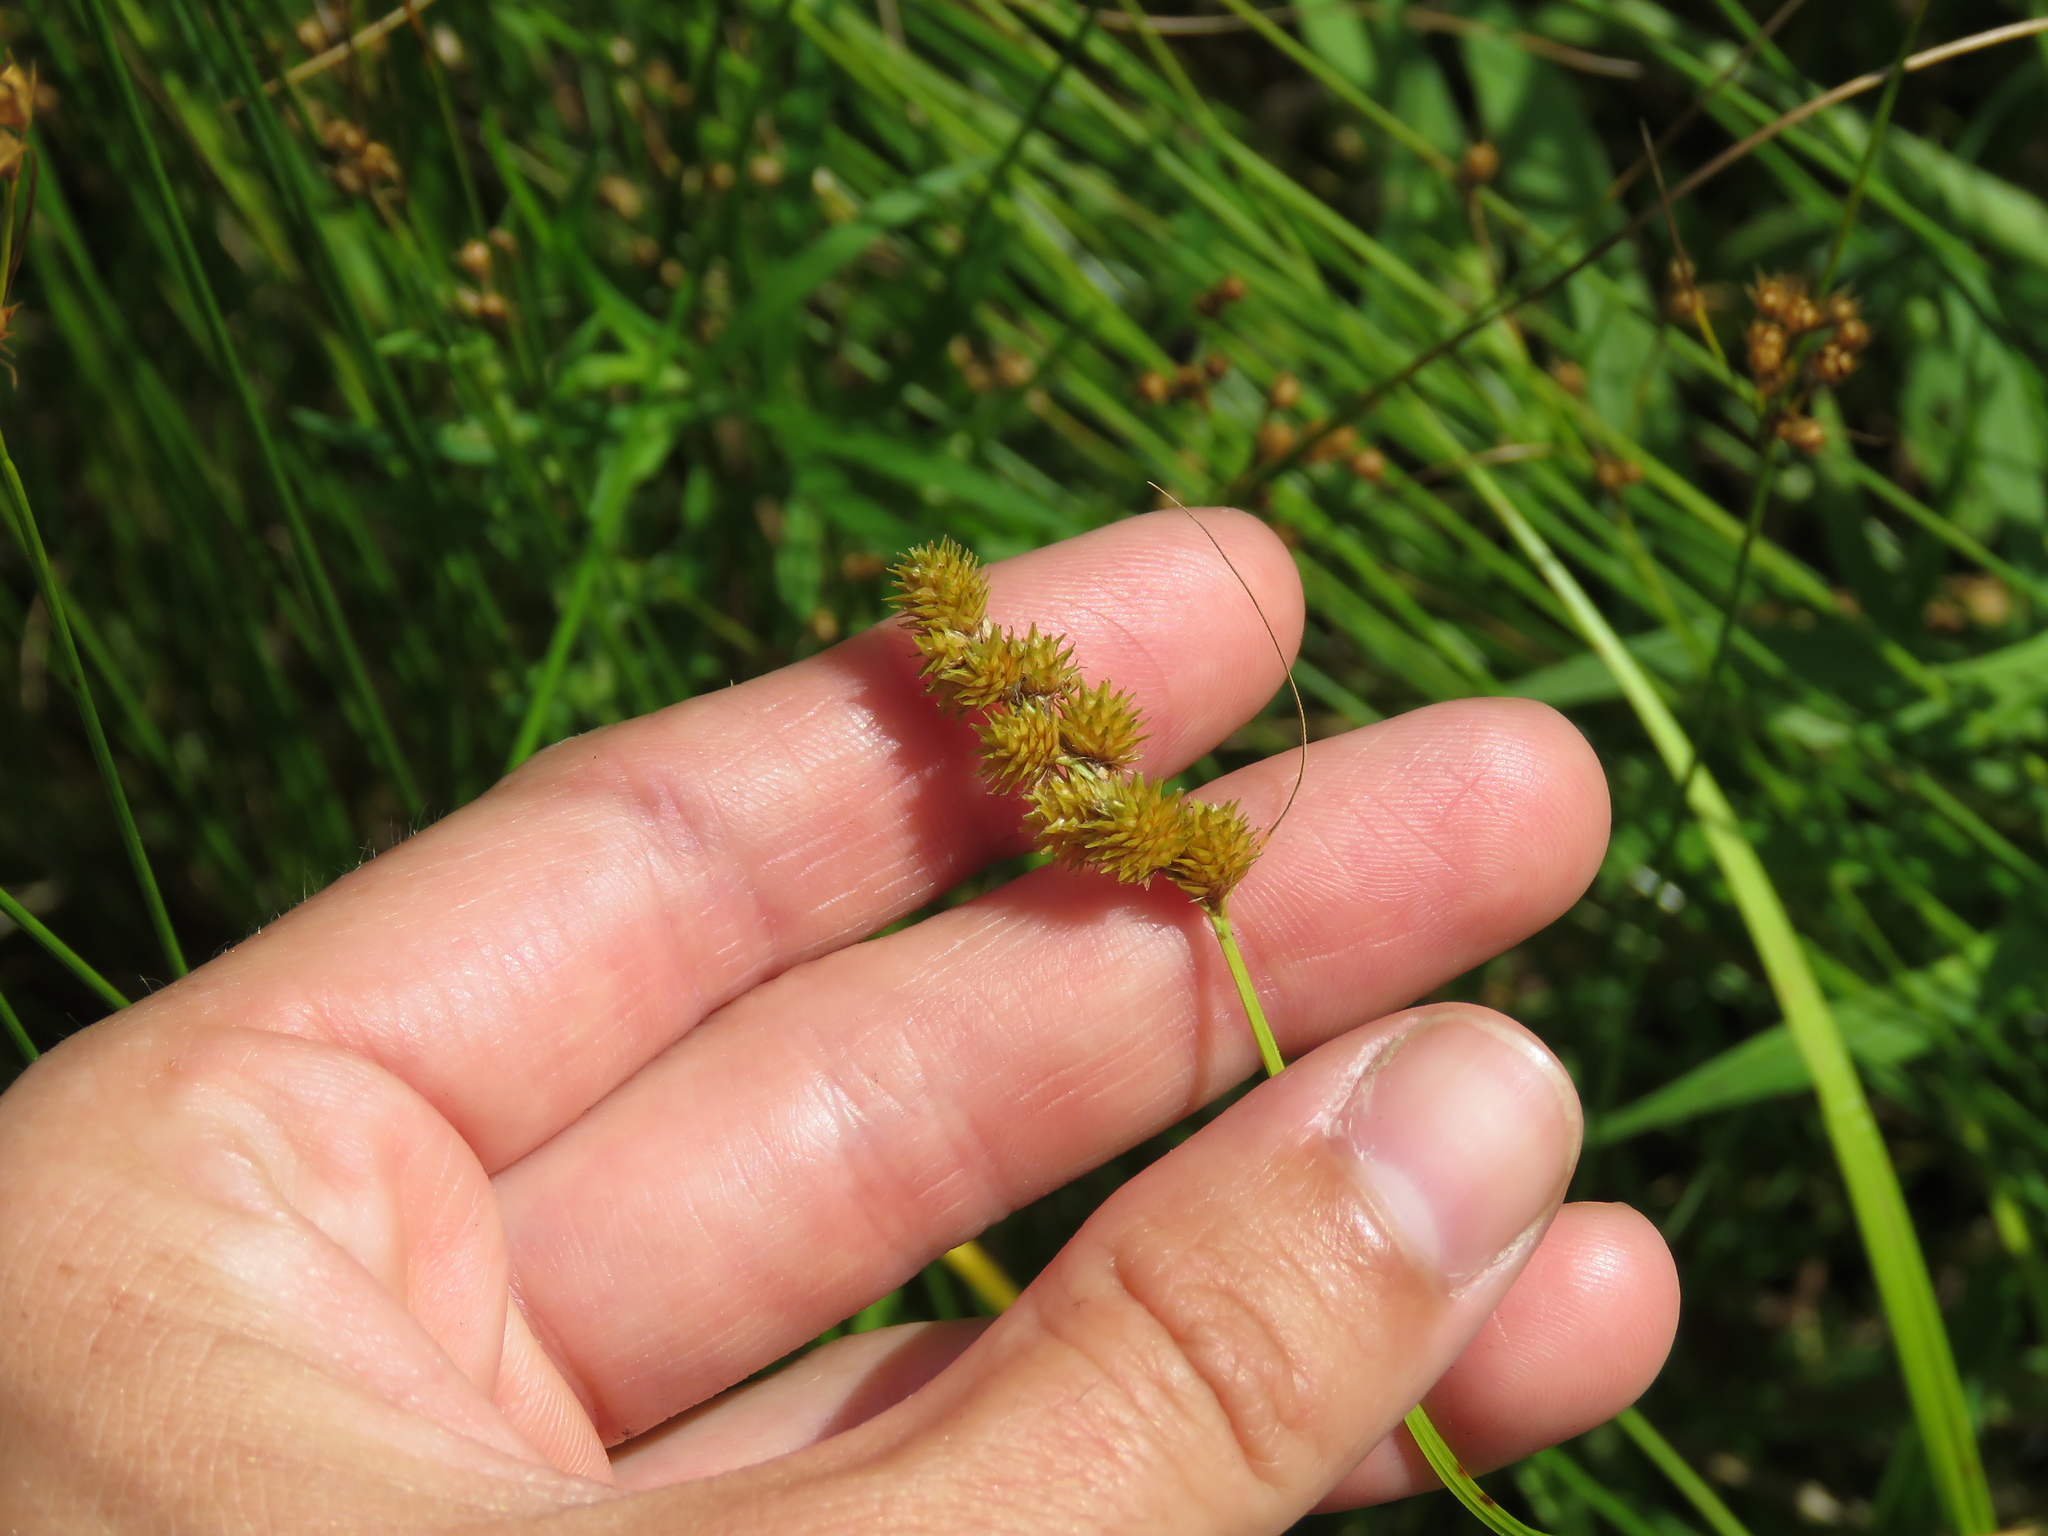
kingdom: Plantae
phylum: Tracheophyta
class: Liliopsida
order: Poales
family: Cyperaceae
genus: Carex
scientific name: Carex cristatella
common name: Crested oval sedge
